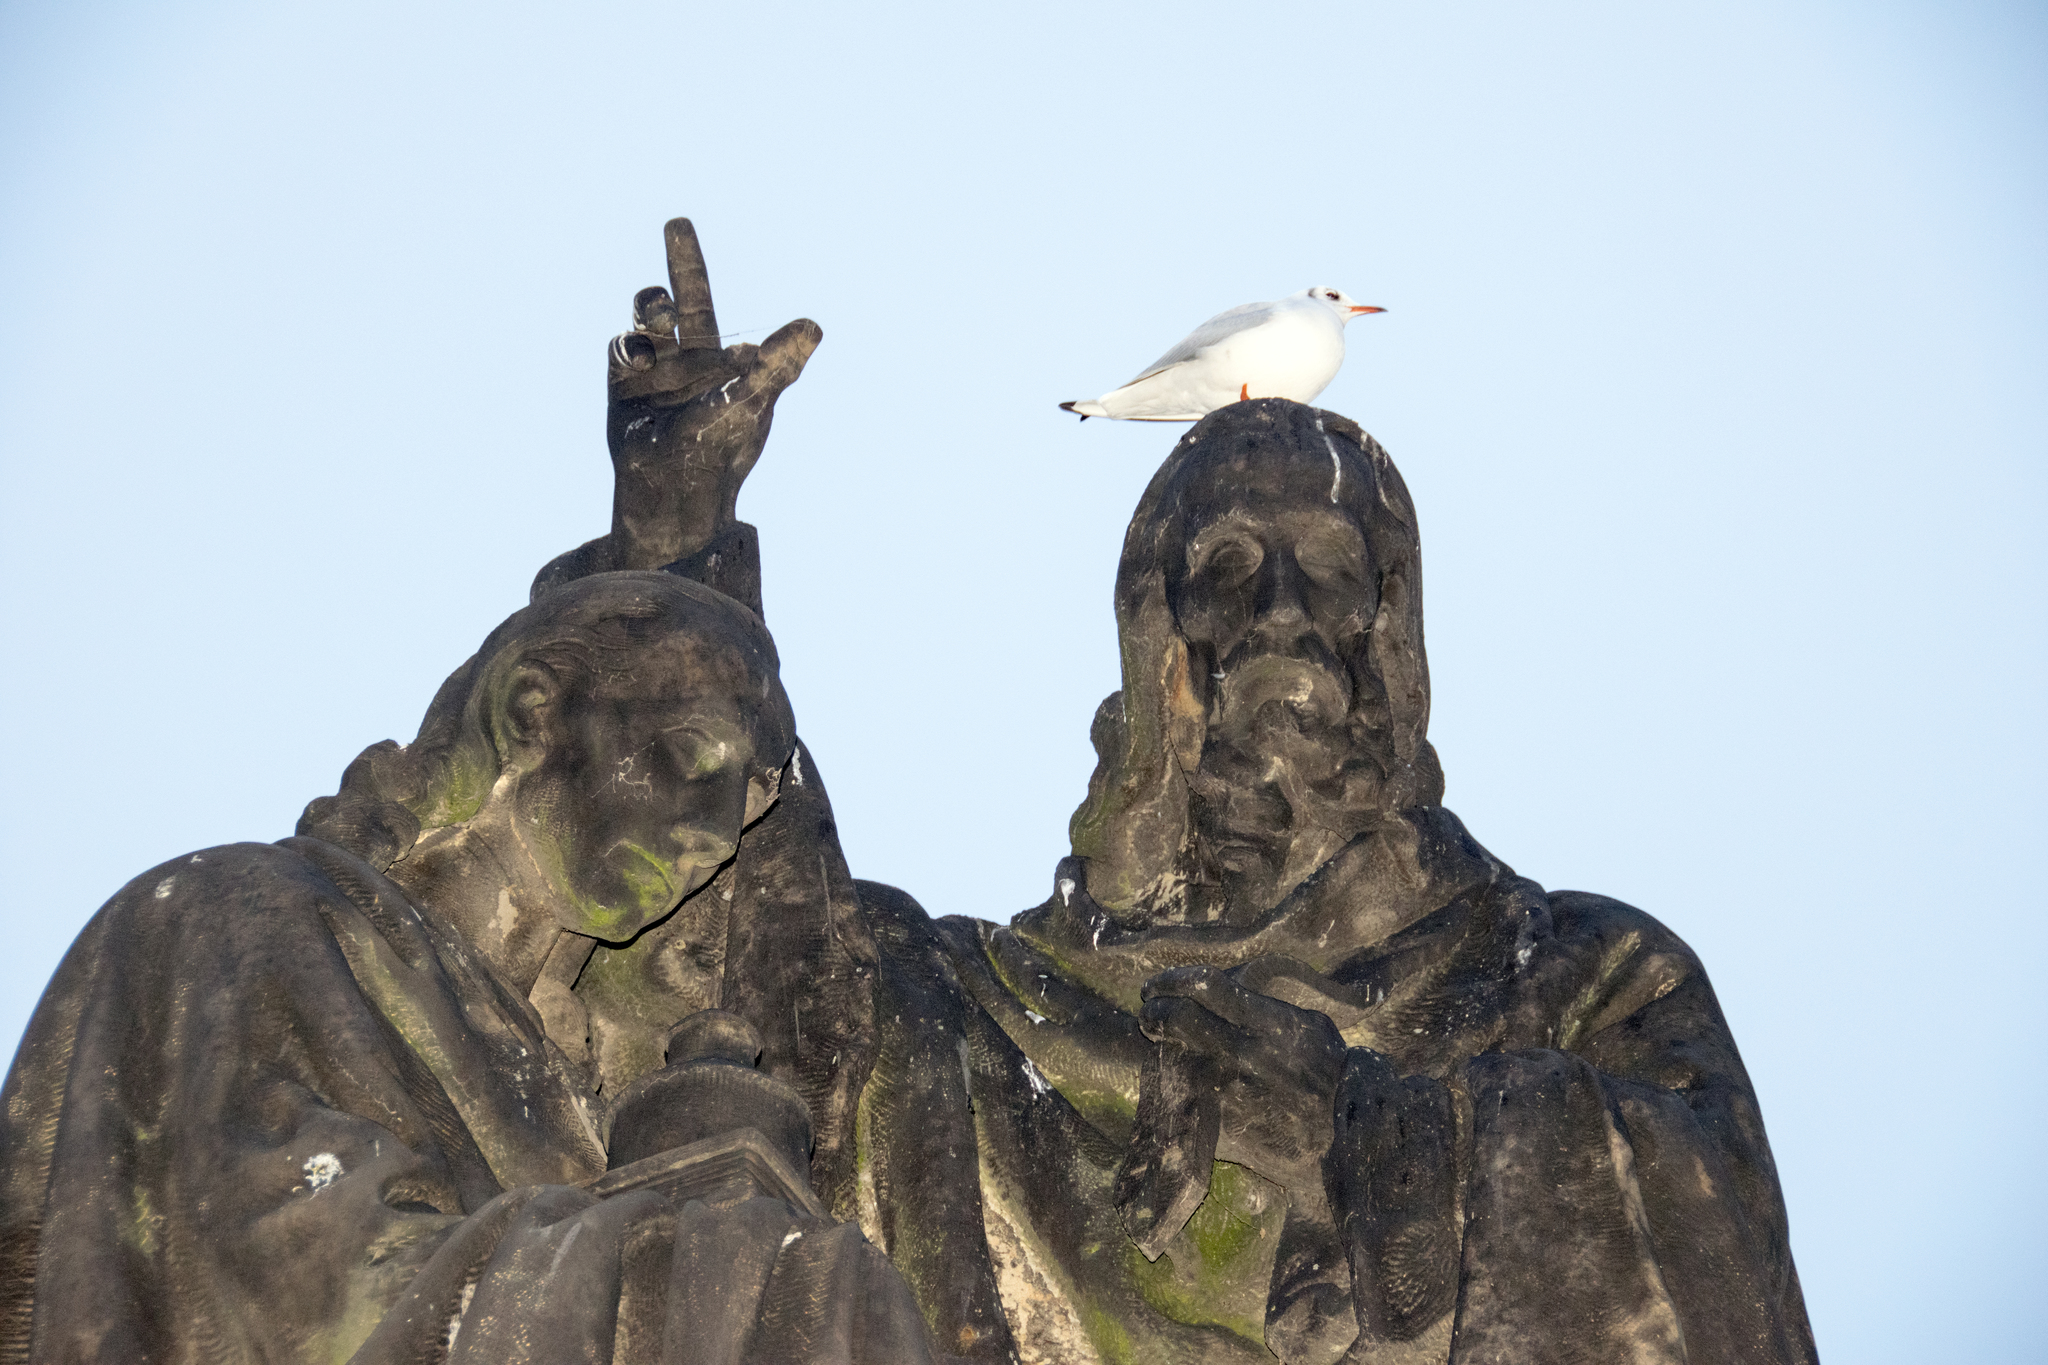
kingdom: Animalia
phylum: Chordata
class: Aves
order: Charadriiformes
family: Laridae
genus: Chroicocephalus
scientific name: Chroicocephalus ridibundus
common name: Black-headed gull
